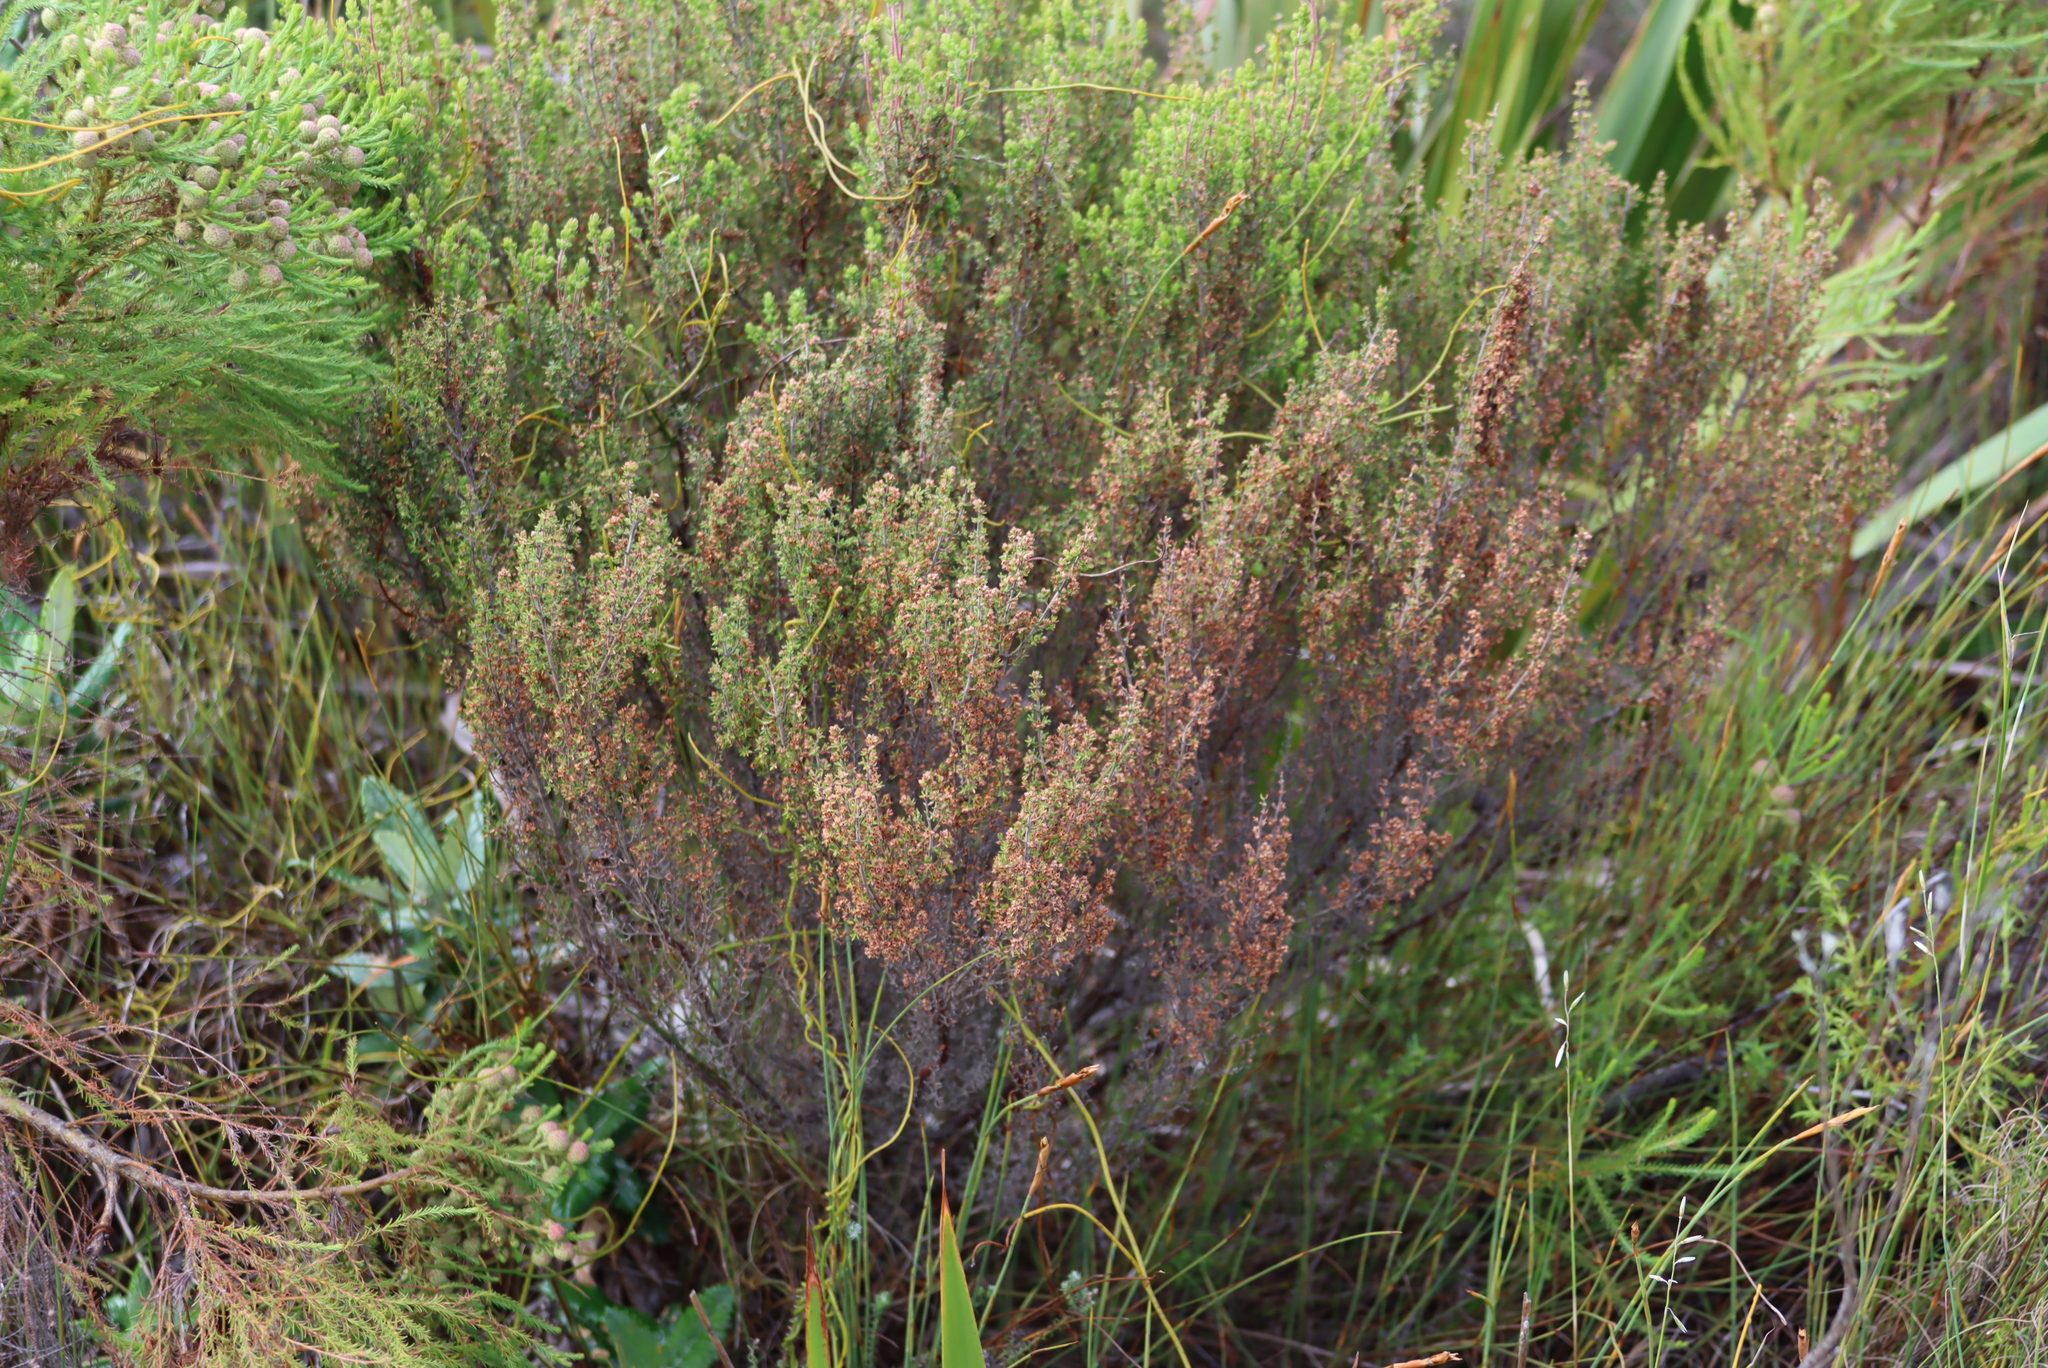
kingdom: Plantae
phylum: Tracheophyta
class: Magnoliopsida
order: Ericales
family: Ericaceae
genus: Erica
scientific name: Erica hispidula
